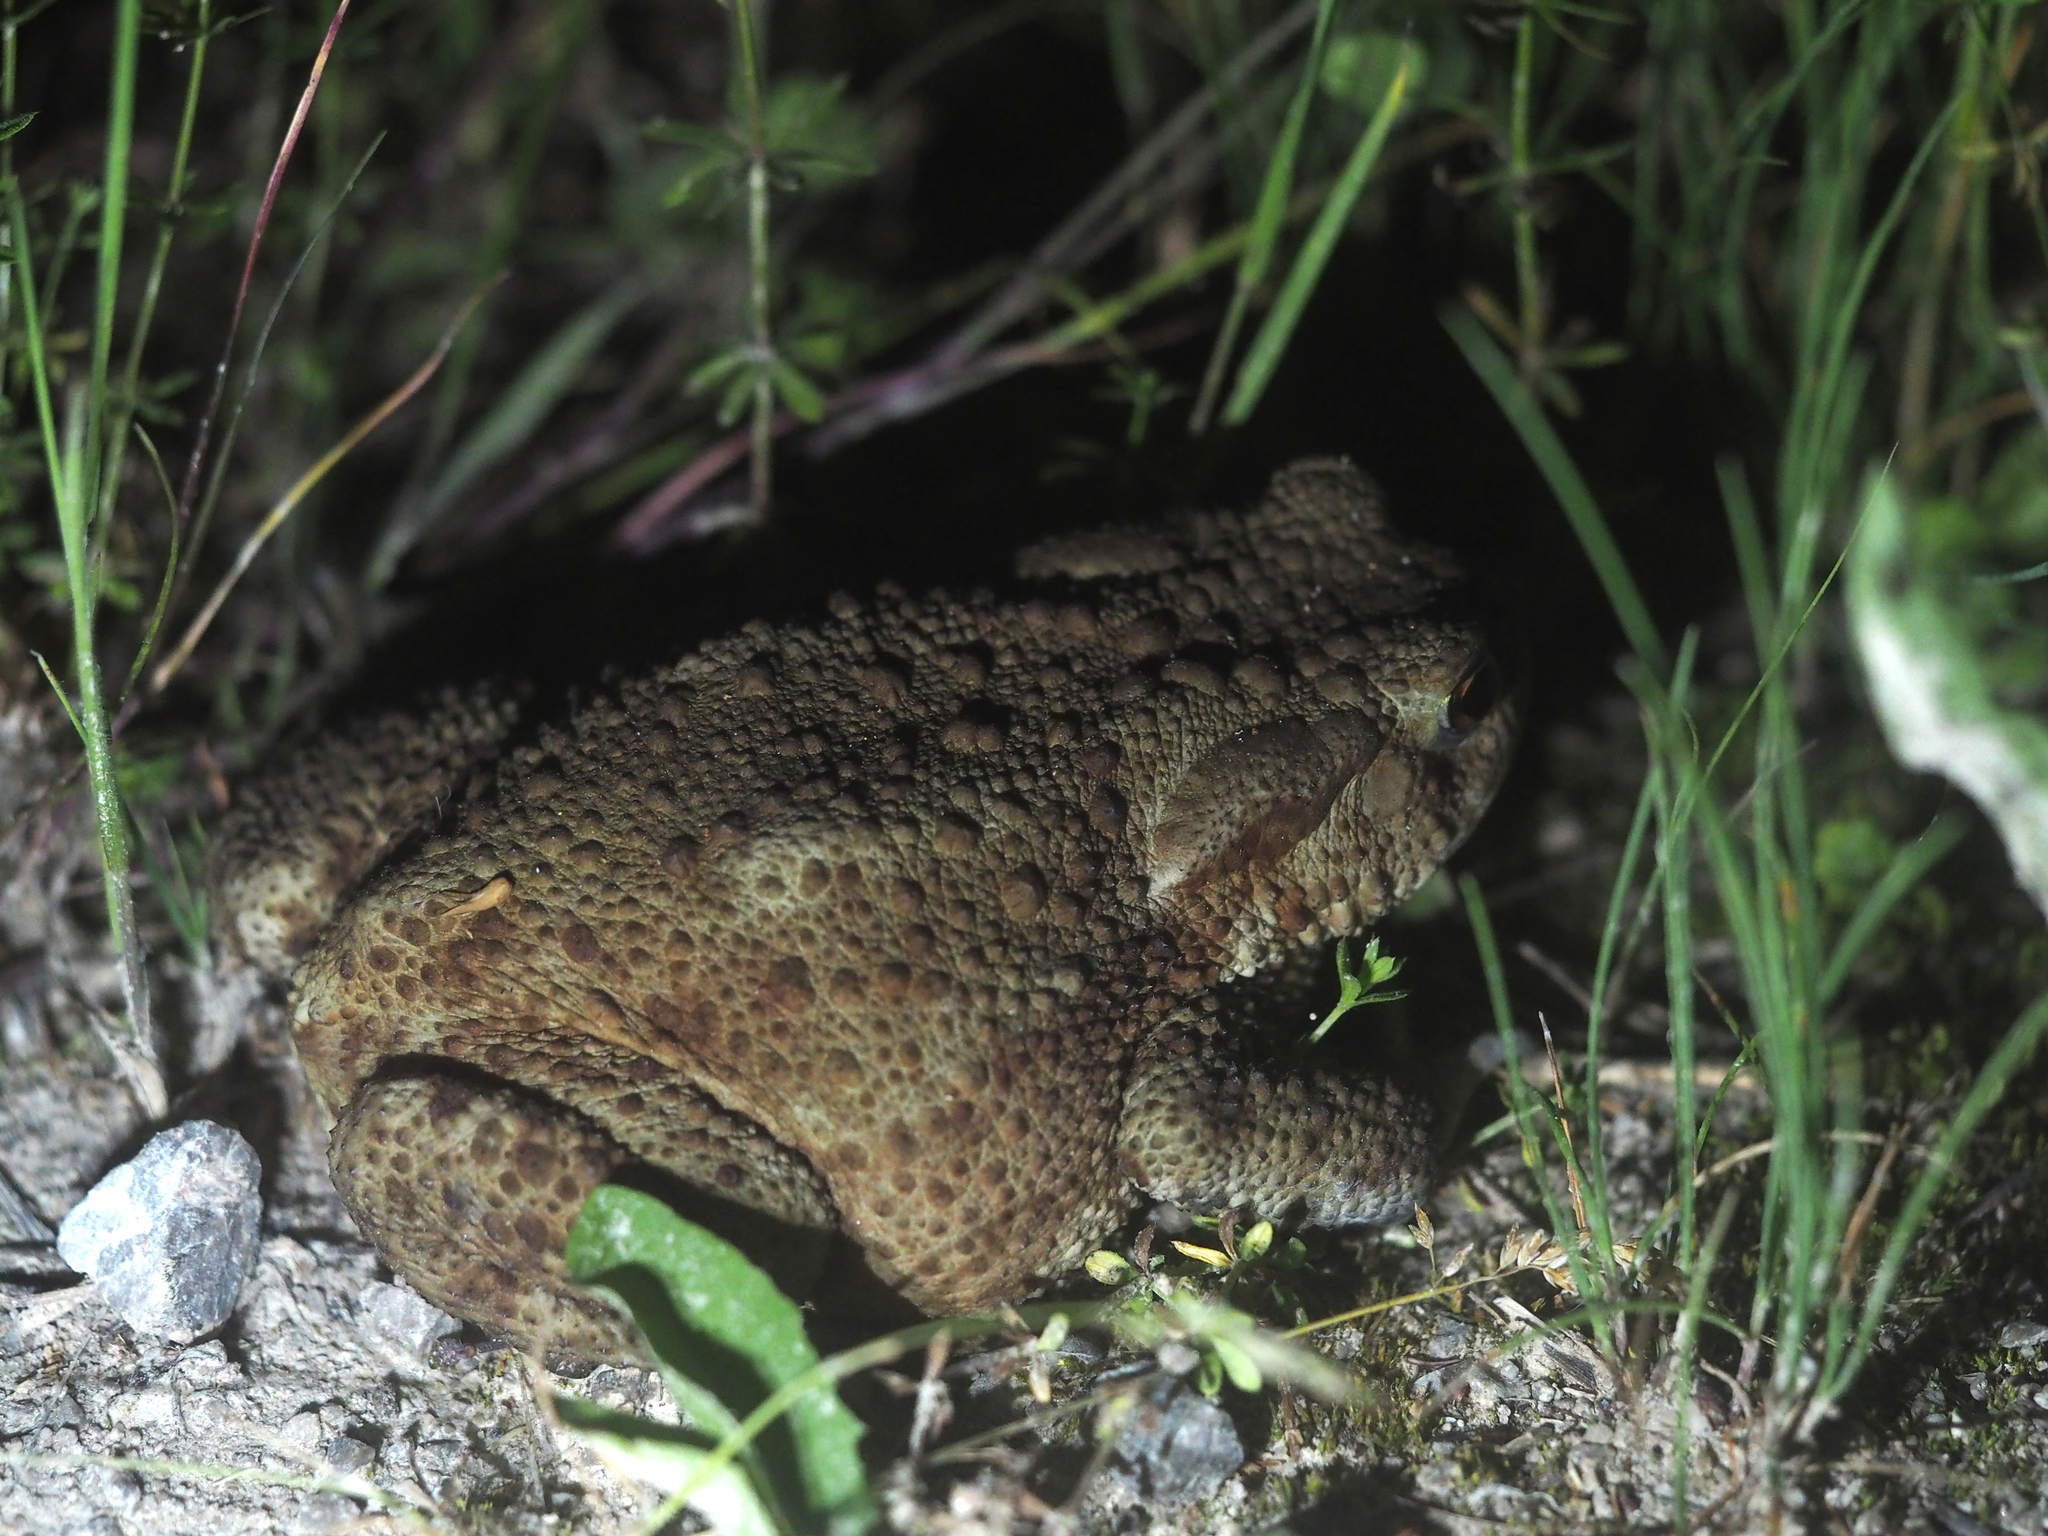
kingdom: Animalia
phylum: Chordata
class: Amphibia
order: Anura
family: Bufonidae
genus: Bufo
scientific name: Bufo bufo
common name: Common toad
